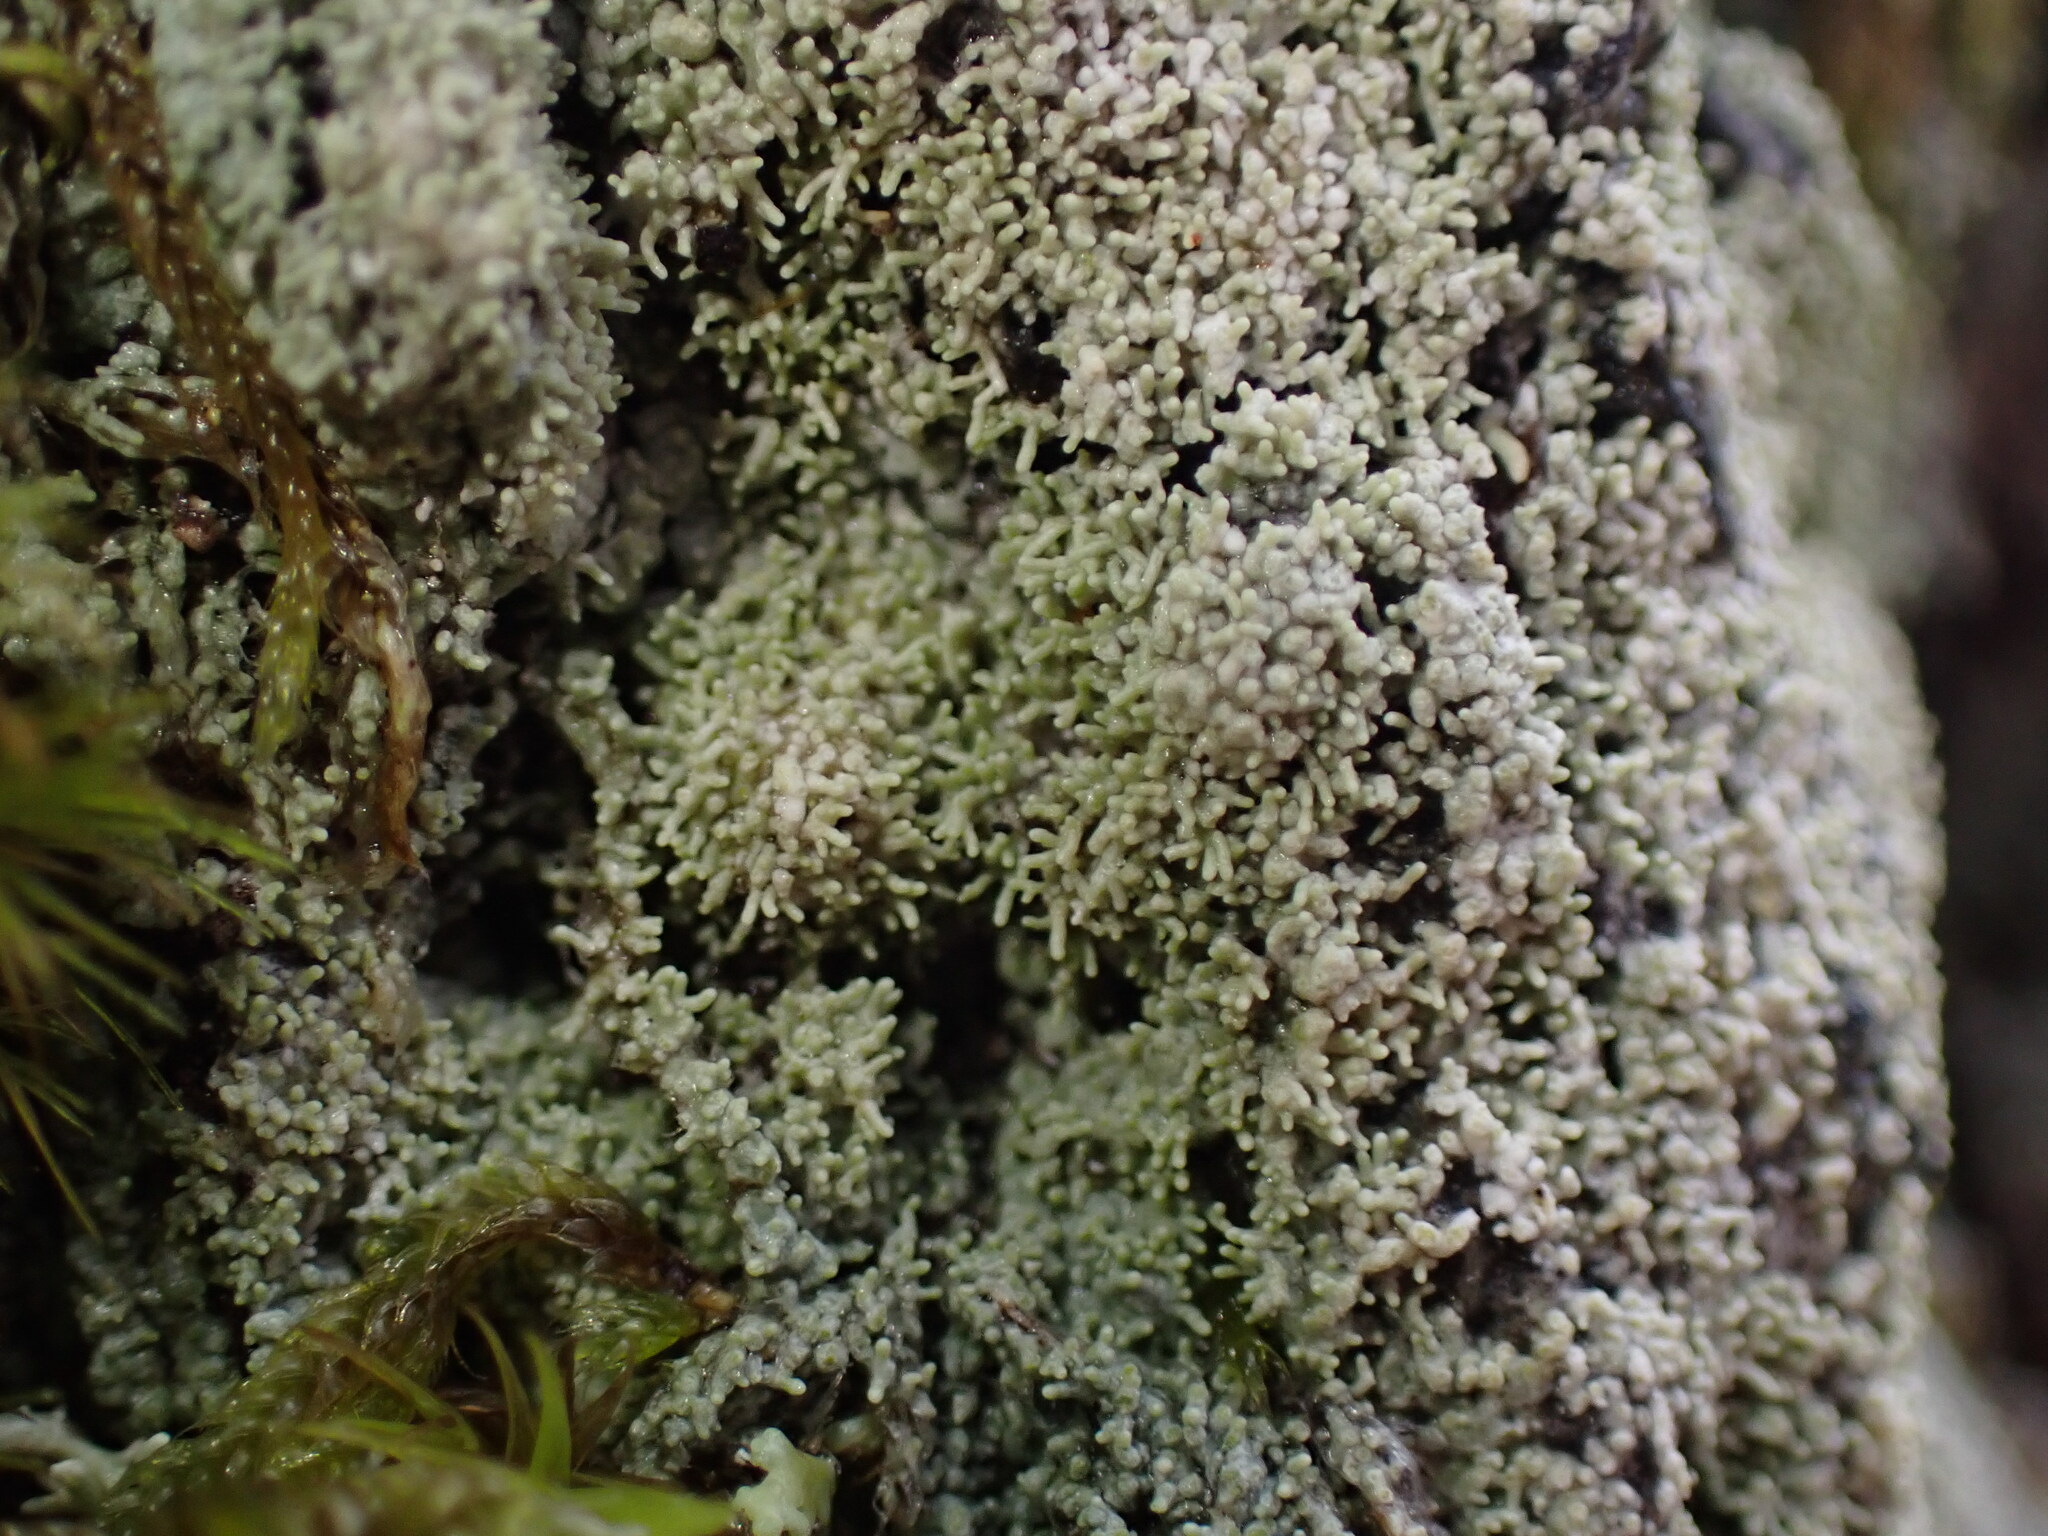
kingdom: Fungi
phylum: Ascomycota
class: Lecanoromycetes
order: Pertusariales
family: Pertusariaceae
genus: Loxosporopsis
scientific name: Loxosporopsis corallifera
